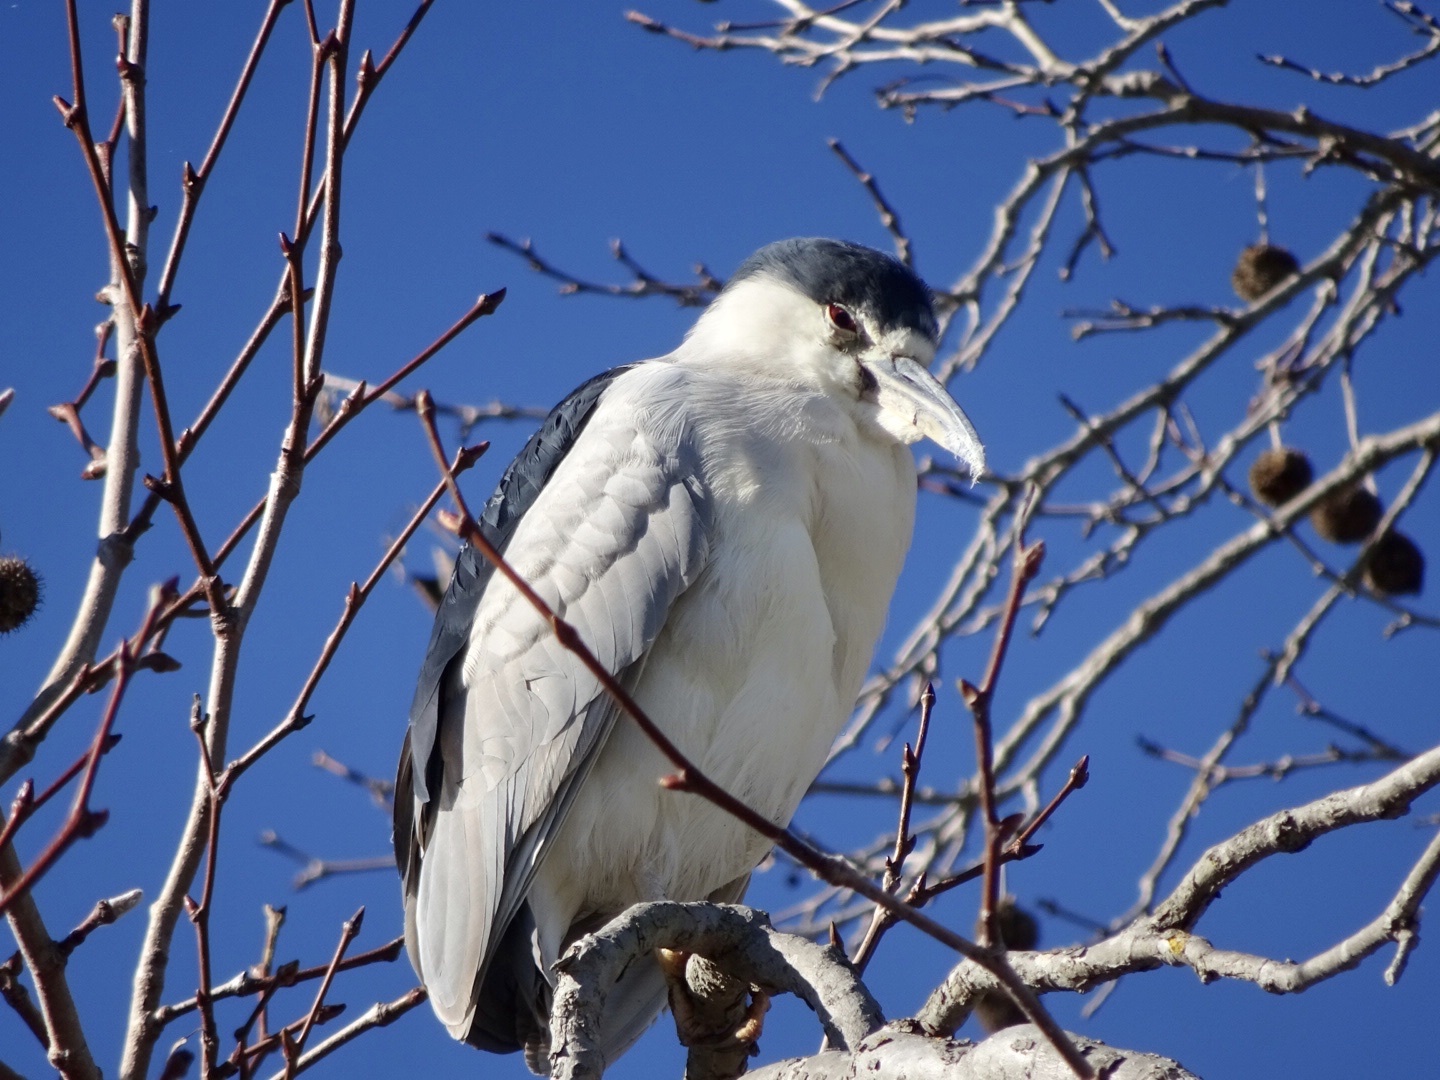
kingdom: Animalia
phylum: Chordata
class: Aves
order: Pelecaniformes
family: Ardeidae
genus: Nycticorax
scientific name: Nycticorax nycticorax
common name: Black-crowned night heron
